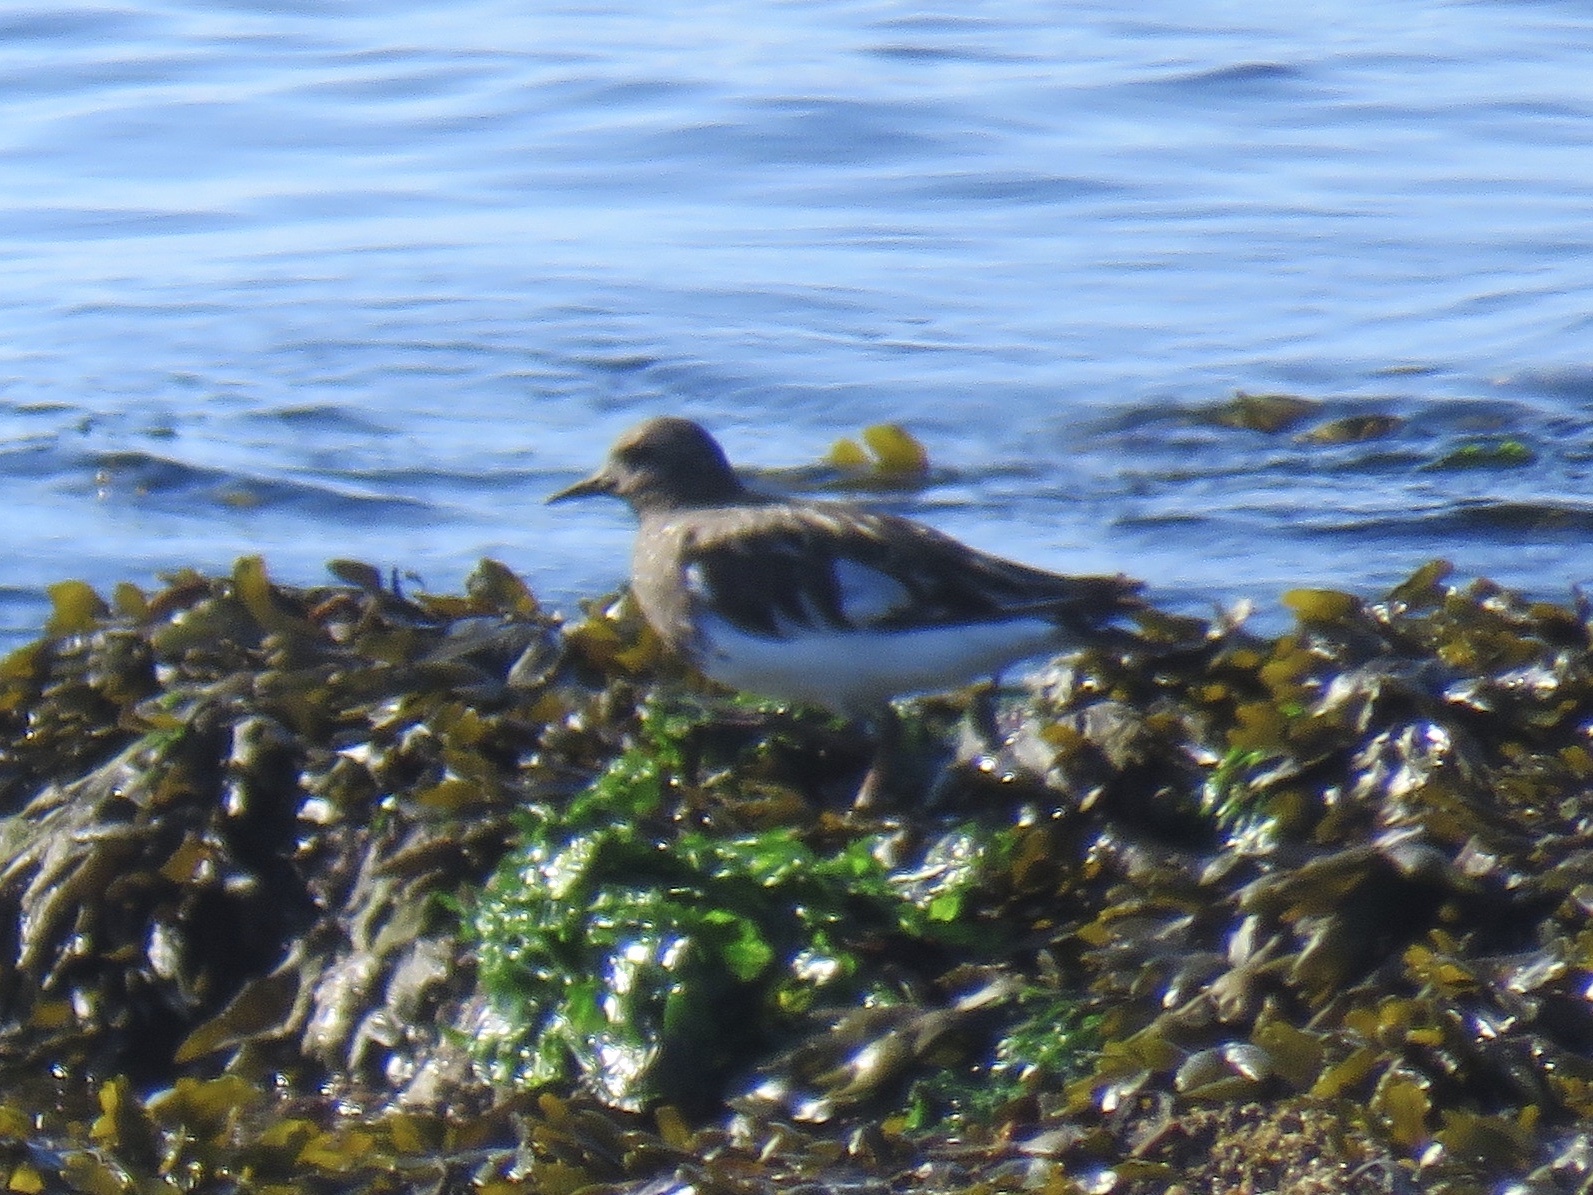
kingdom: Animalia
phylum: Chordata
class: Aves
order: Charadriiformes
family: Scolopacidae
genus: Arenaria
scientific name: Arenaria melanocephala
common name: Black turnstone
